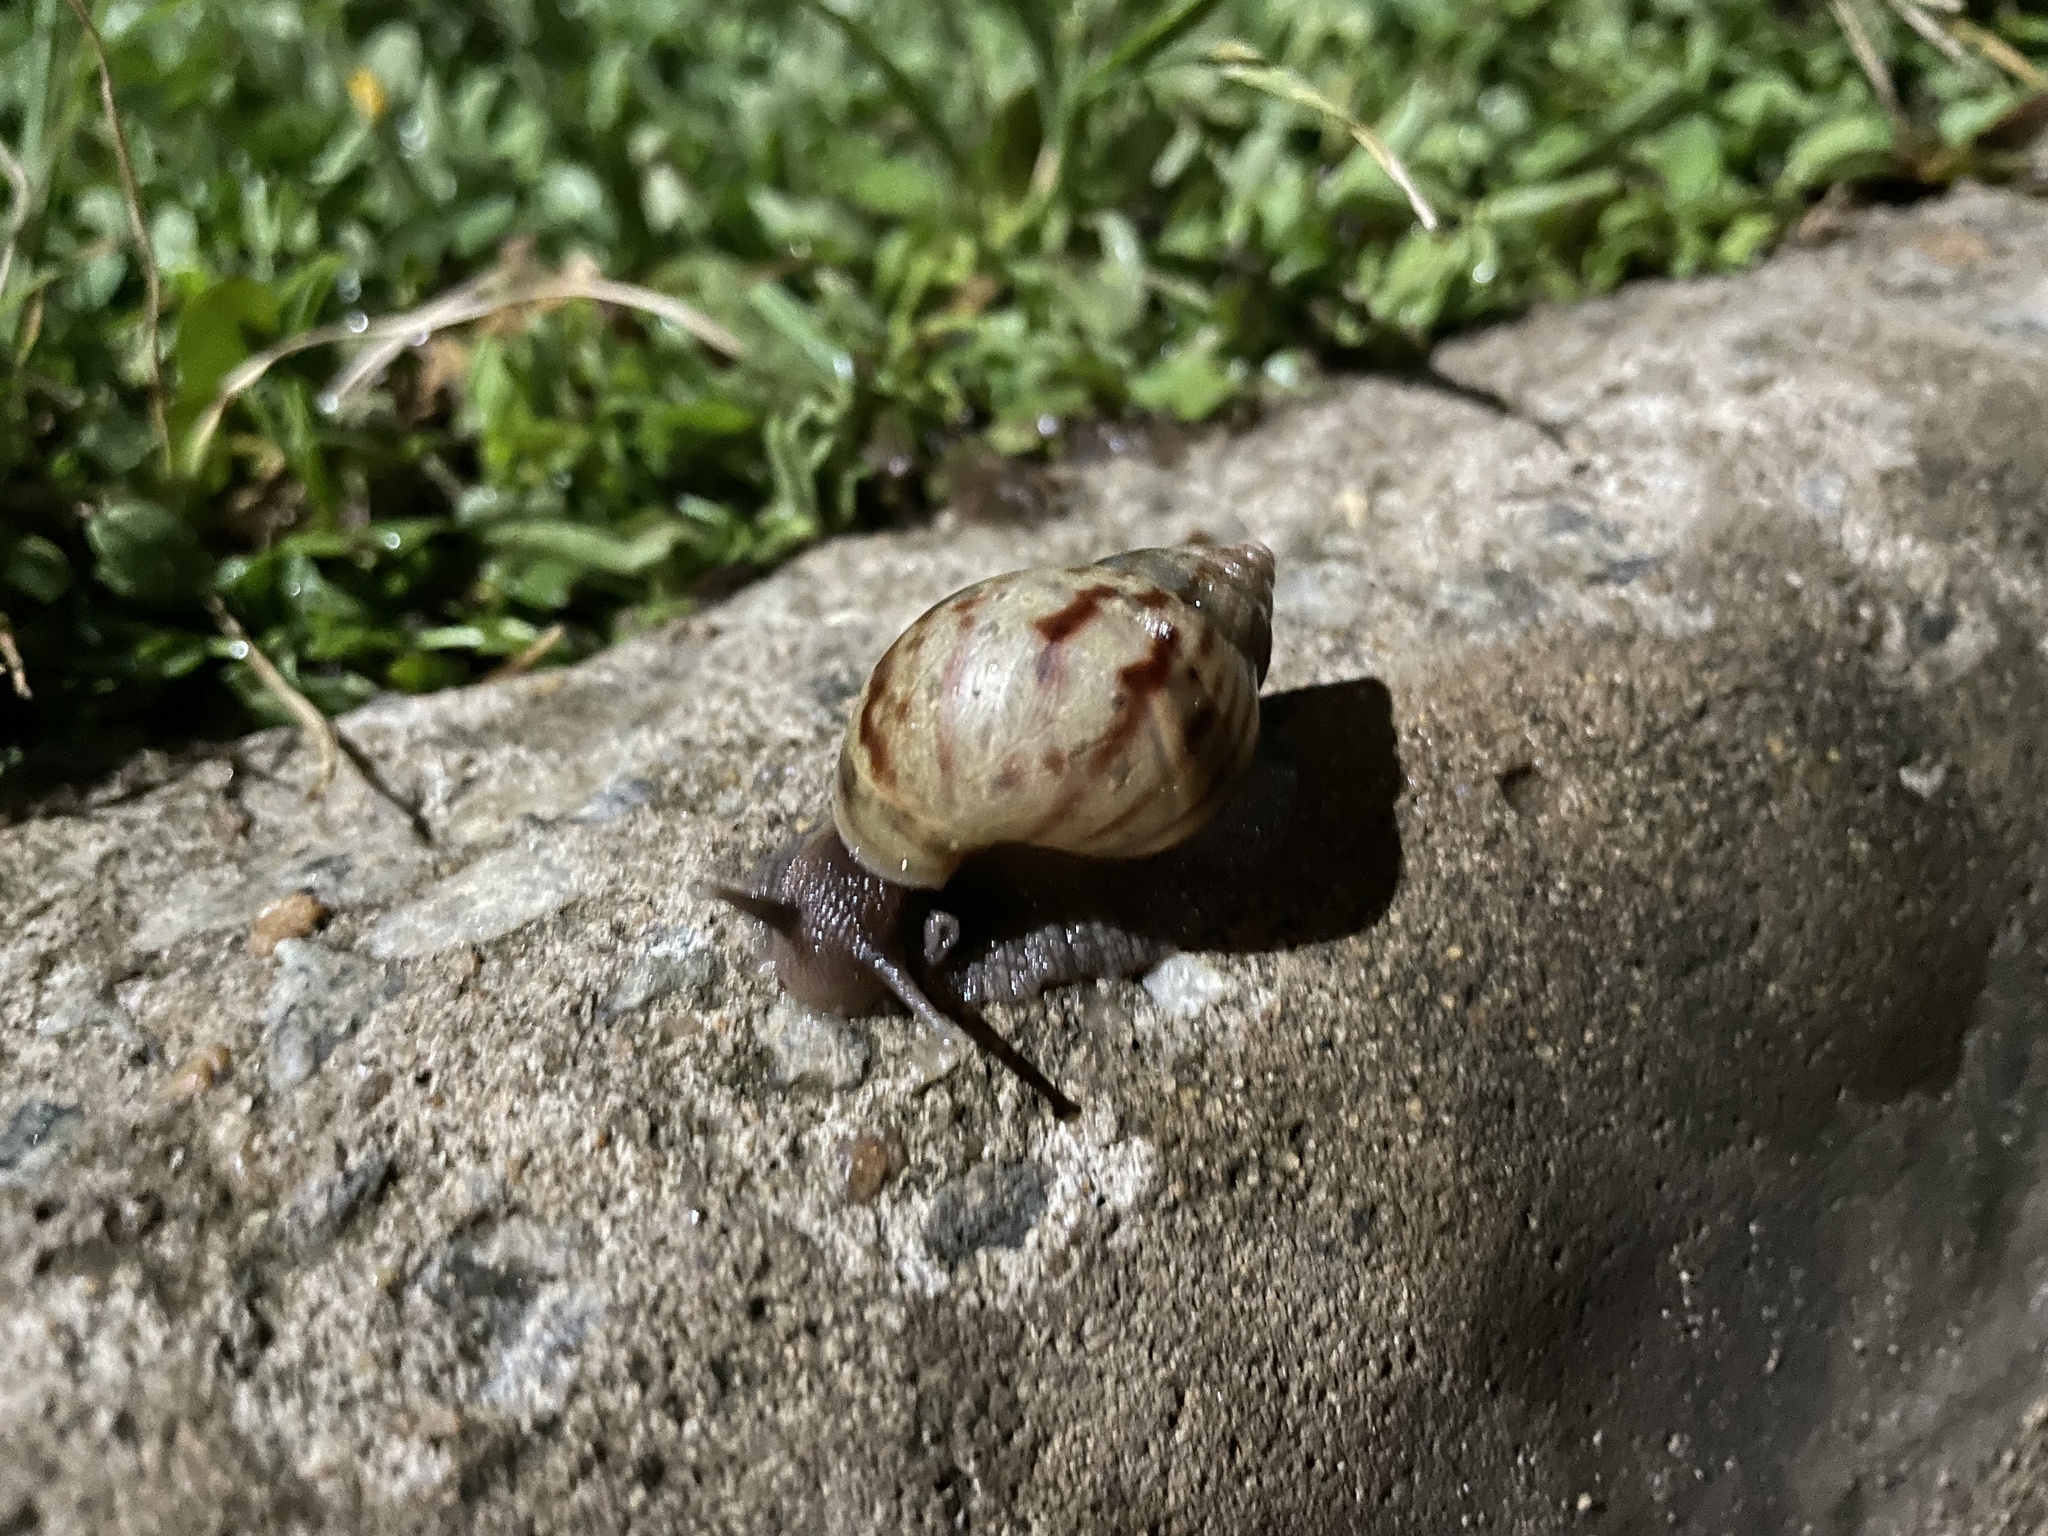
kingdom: Animalia
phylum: Mollusca
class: Gastropoda
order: Stylommatophora
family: Achatinidae
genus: Lissachatina
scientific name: Lissachatina fulica
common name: Giant african snail
